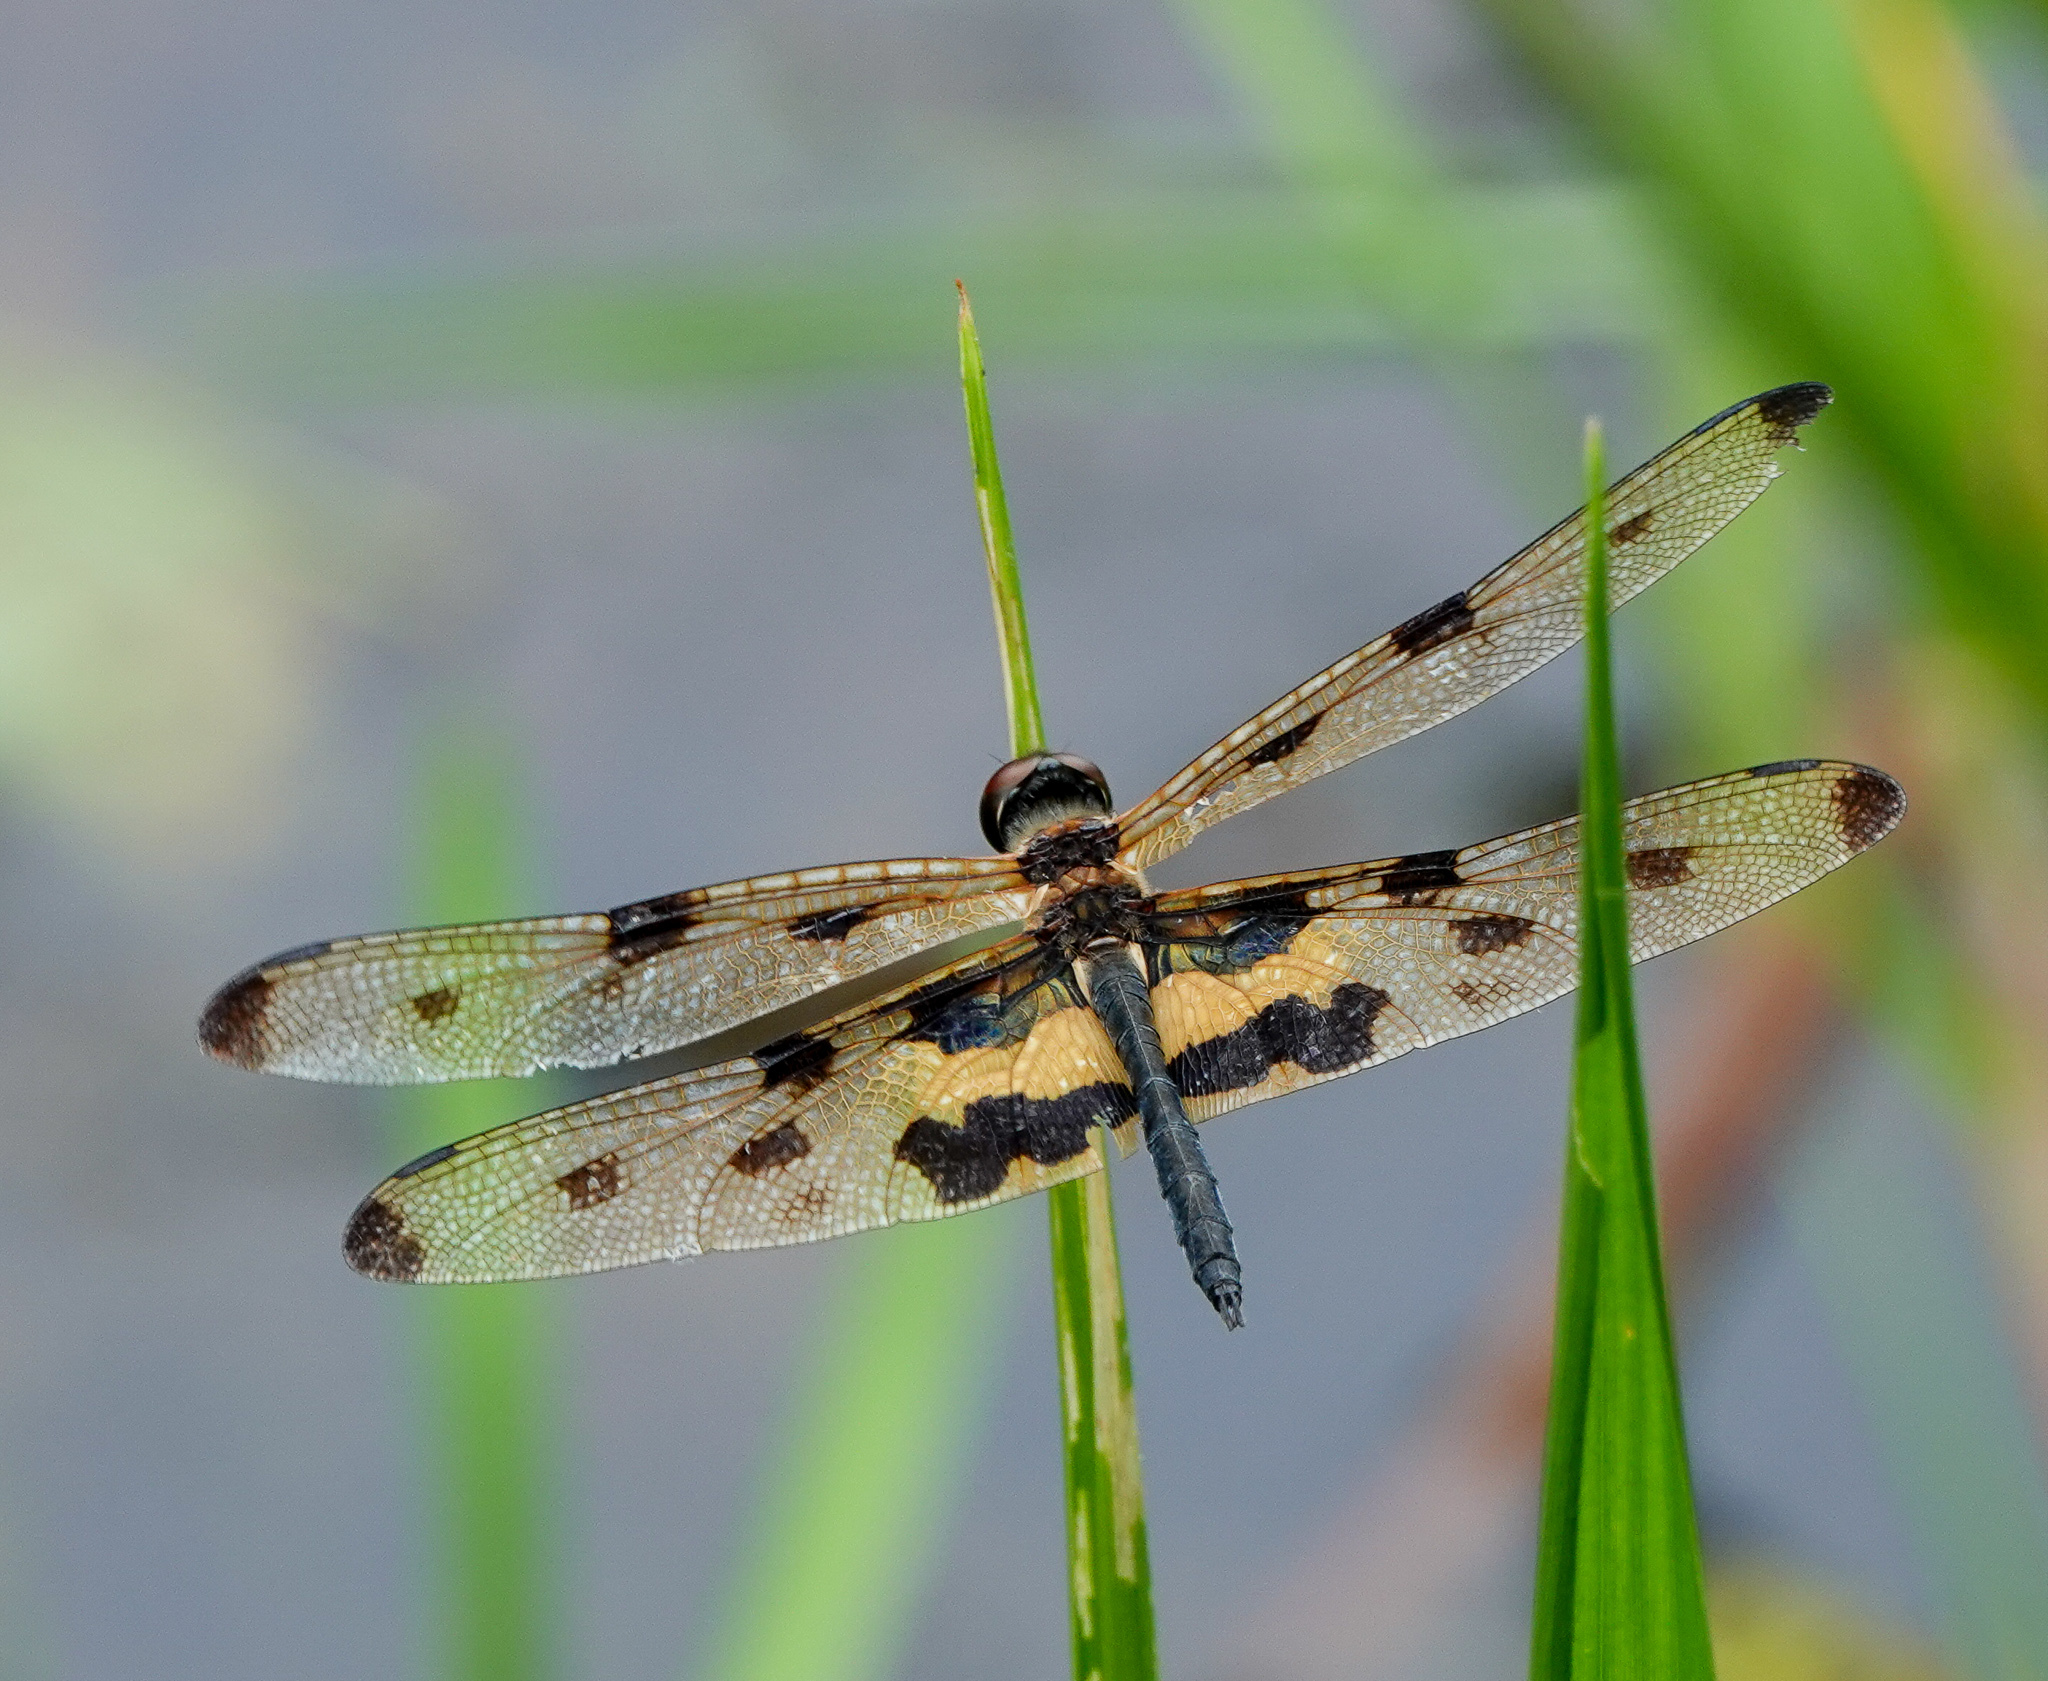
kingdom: Animalia
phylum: Arthropoda
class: Insecta
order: Odonata
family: Libellulidae
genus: Rhyothemis
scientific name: Rhyothemis variegata
